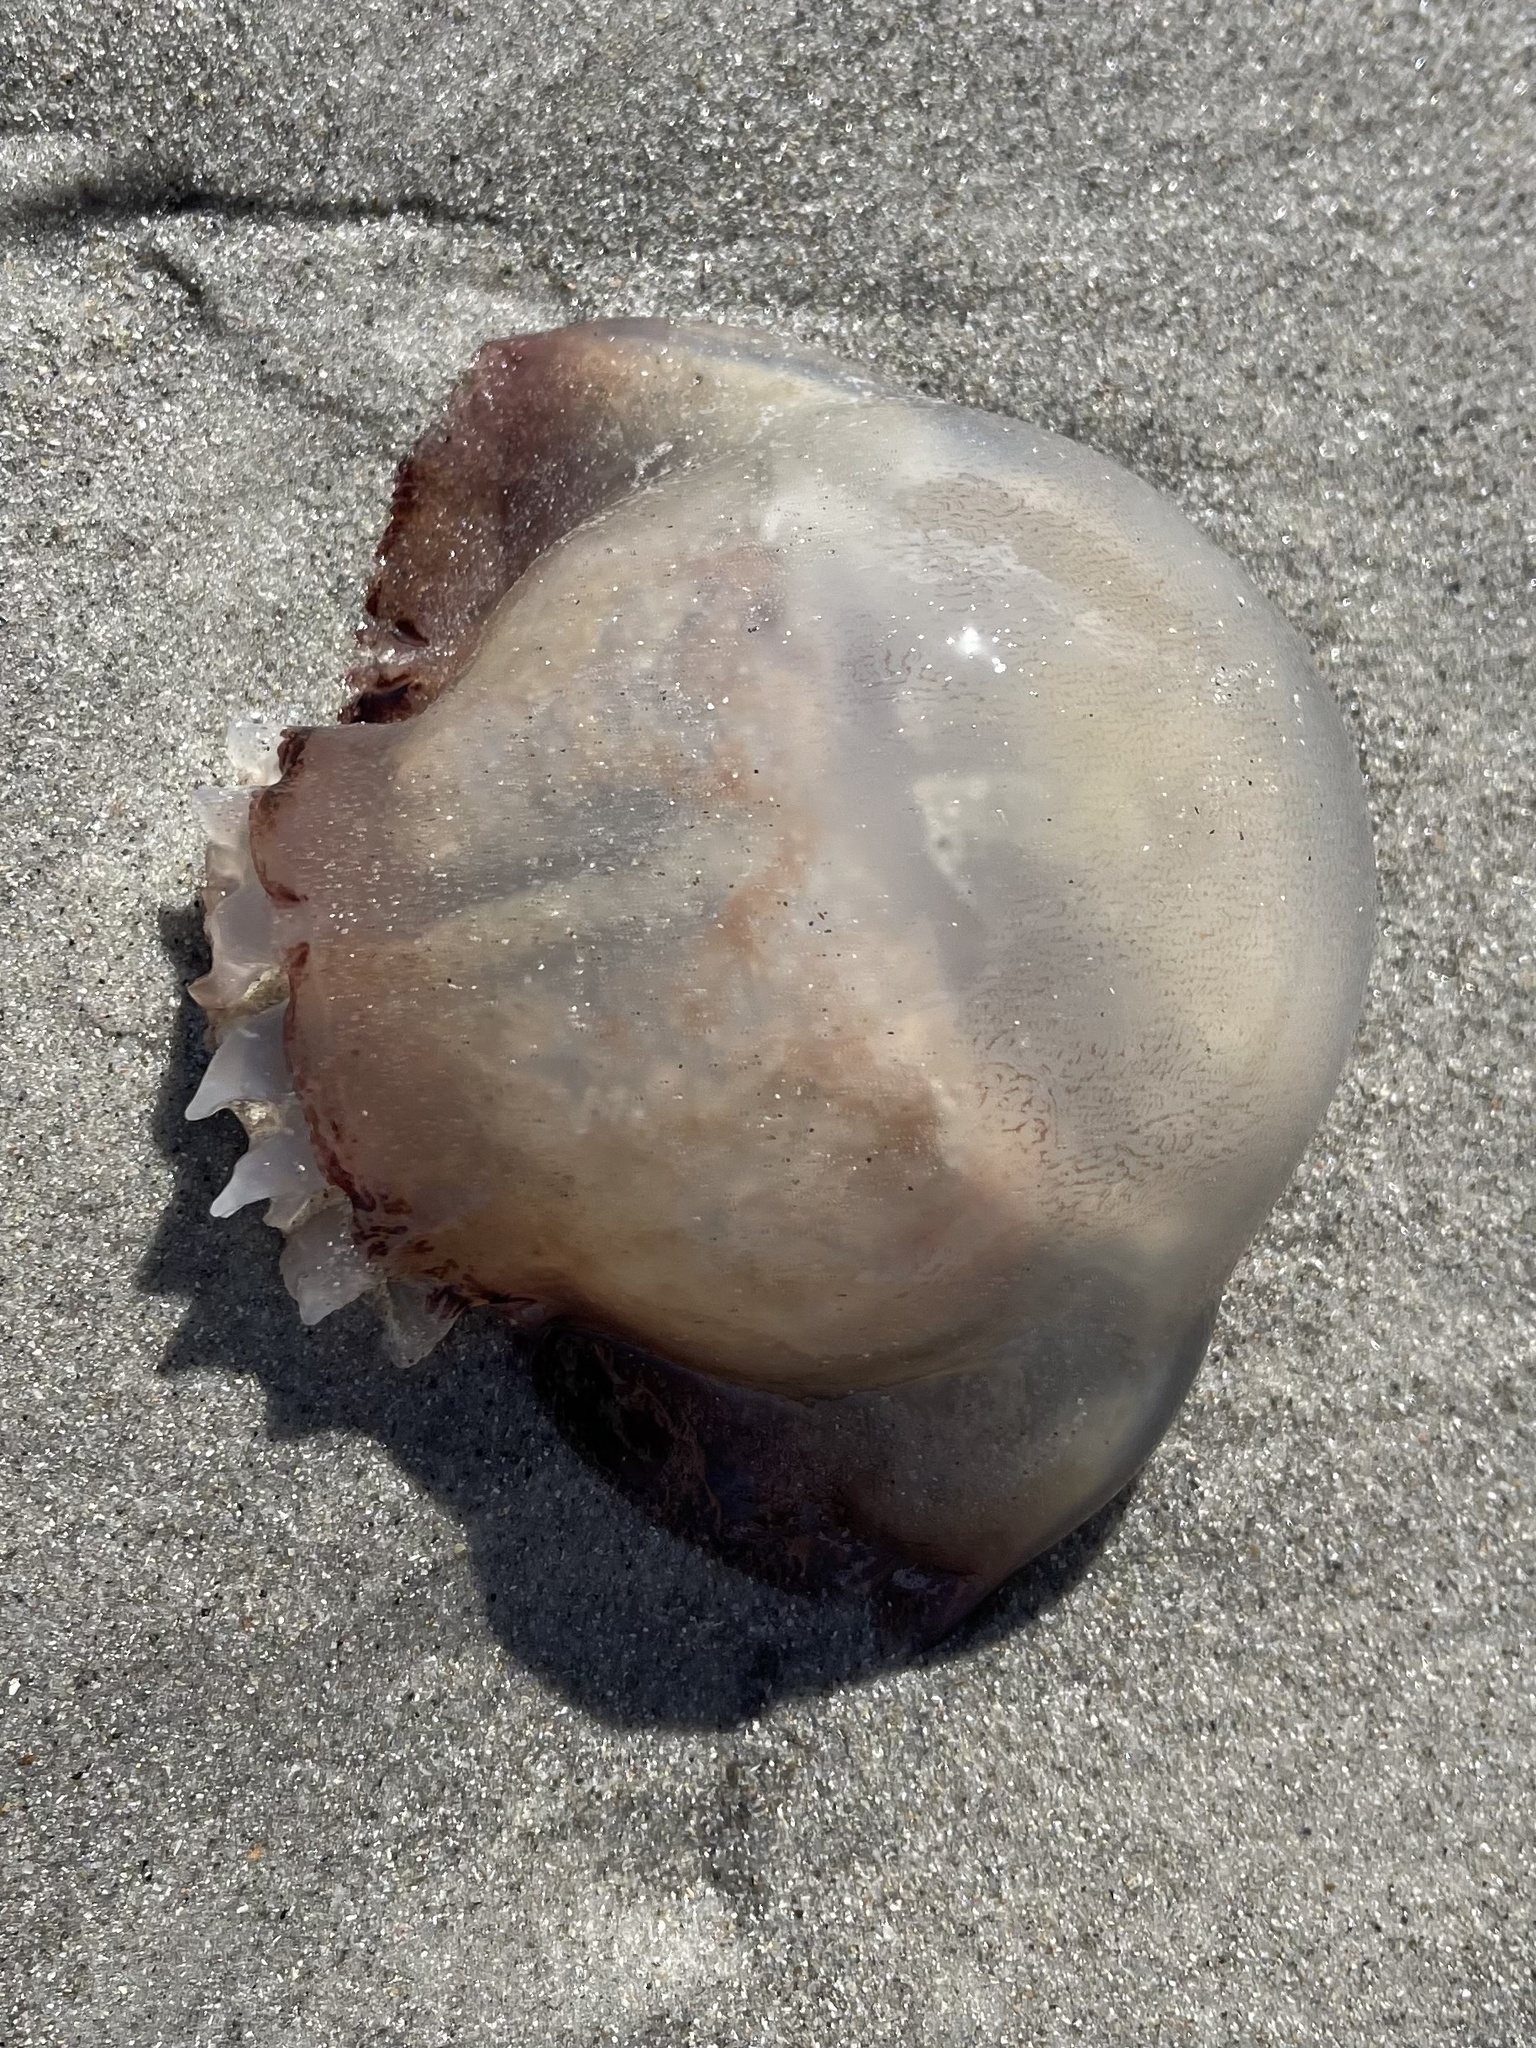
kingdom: Animalia
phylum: Cnidaria
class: Scyphozoa
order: Rhizostomeae
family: Stomolophidae
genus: Stomolophus
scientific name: Stomolophus meleagris
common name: Cabbagehead
